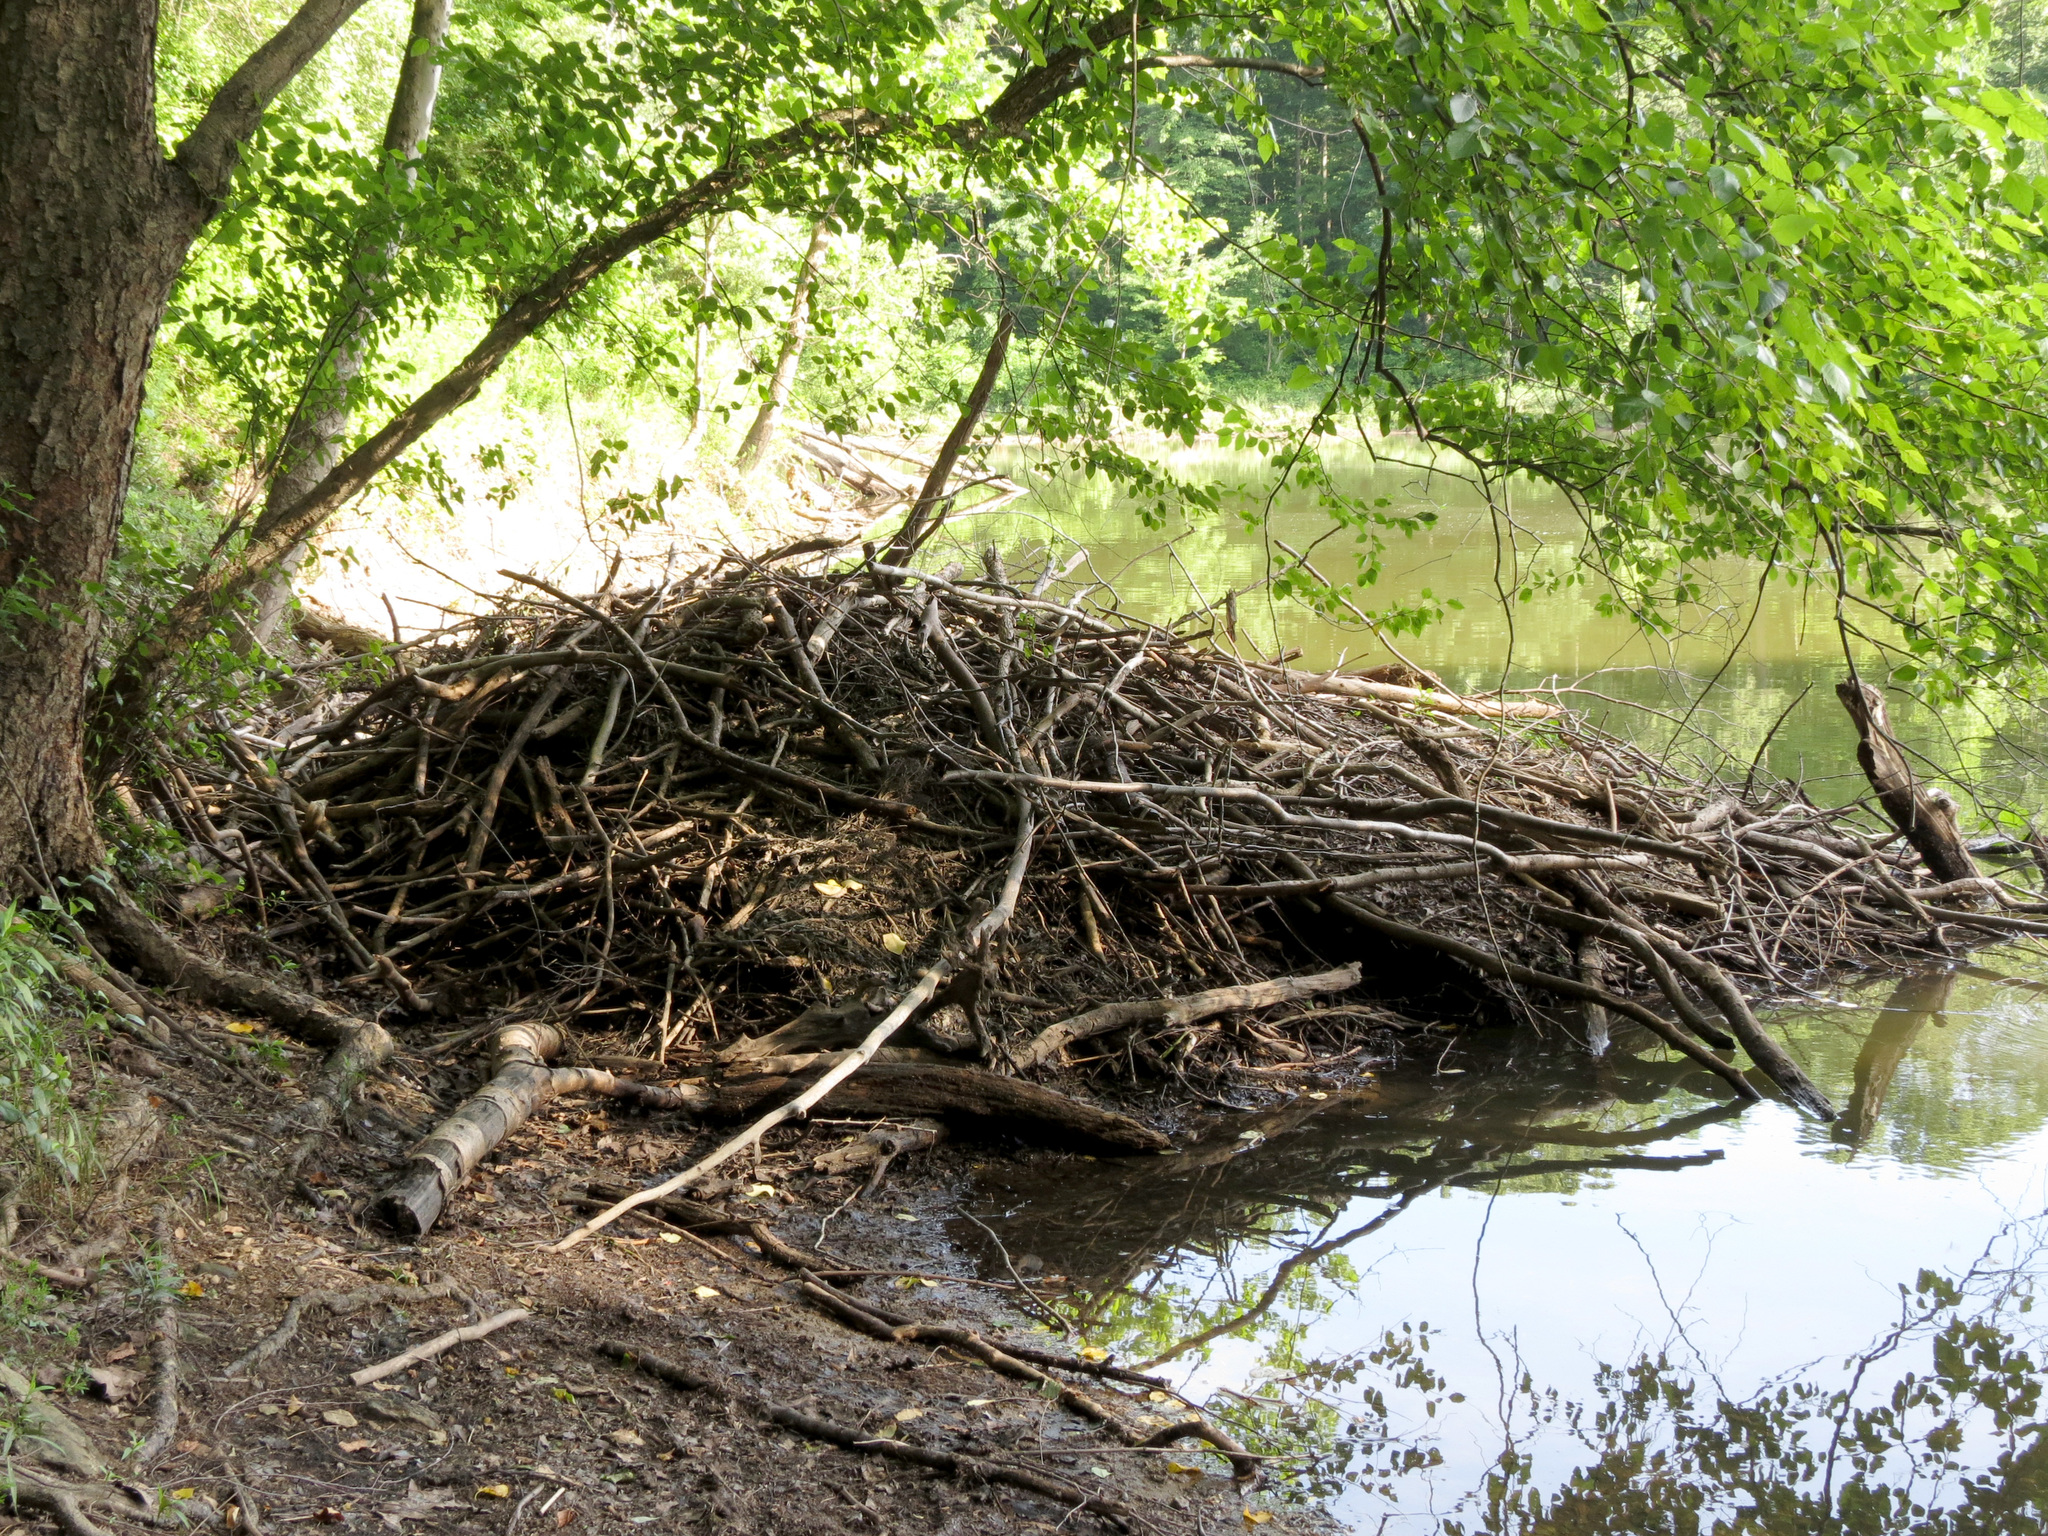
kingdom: Animalia
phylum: Chordata
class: Mammalia
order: Rodentia
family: Castoridae
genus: Castor
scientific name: Castor canadensis
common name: American beaver
